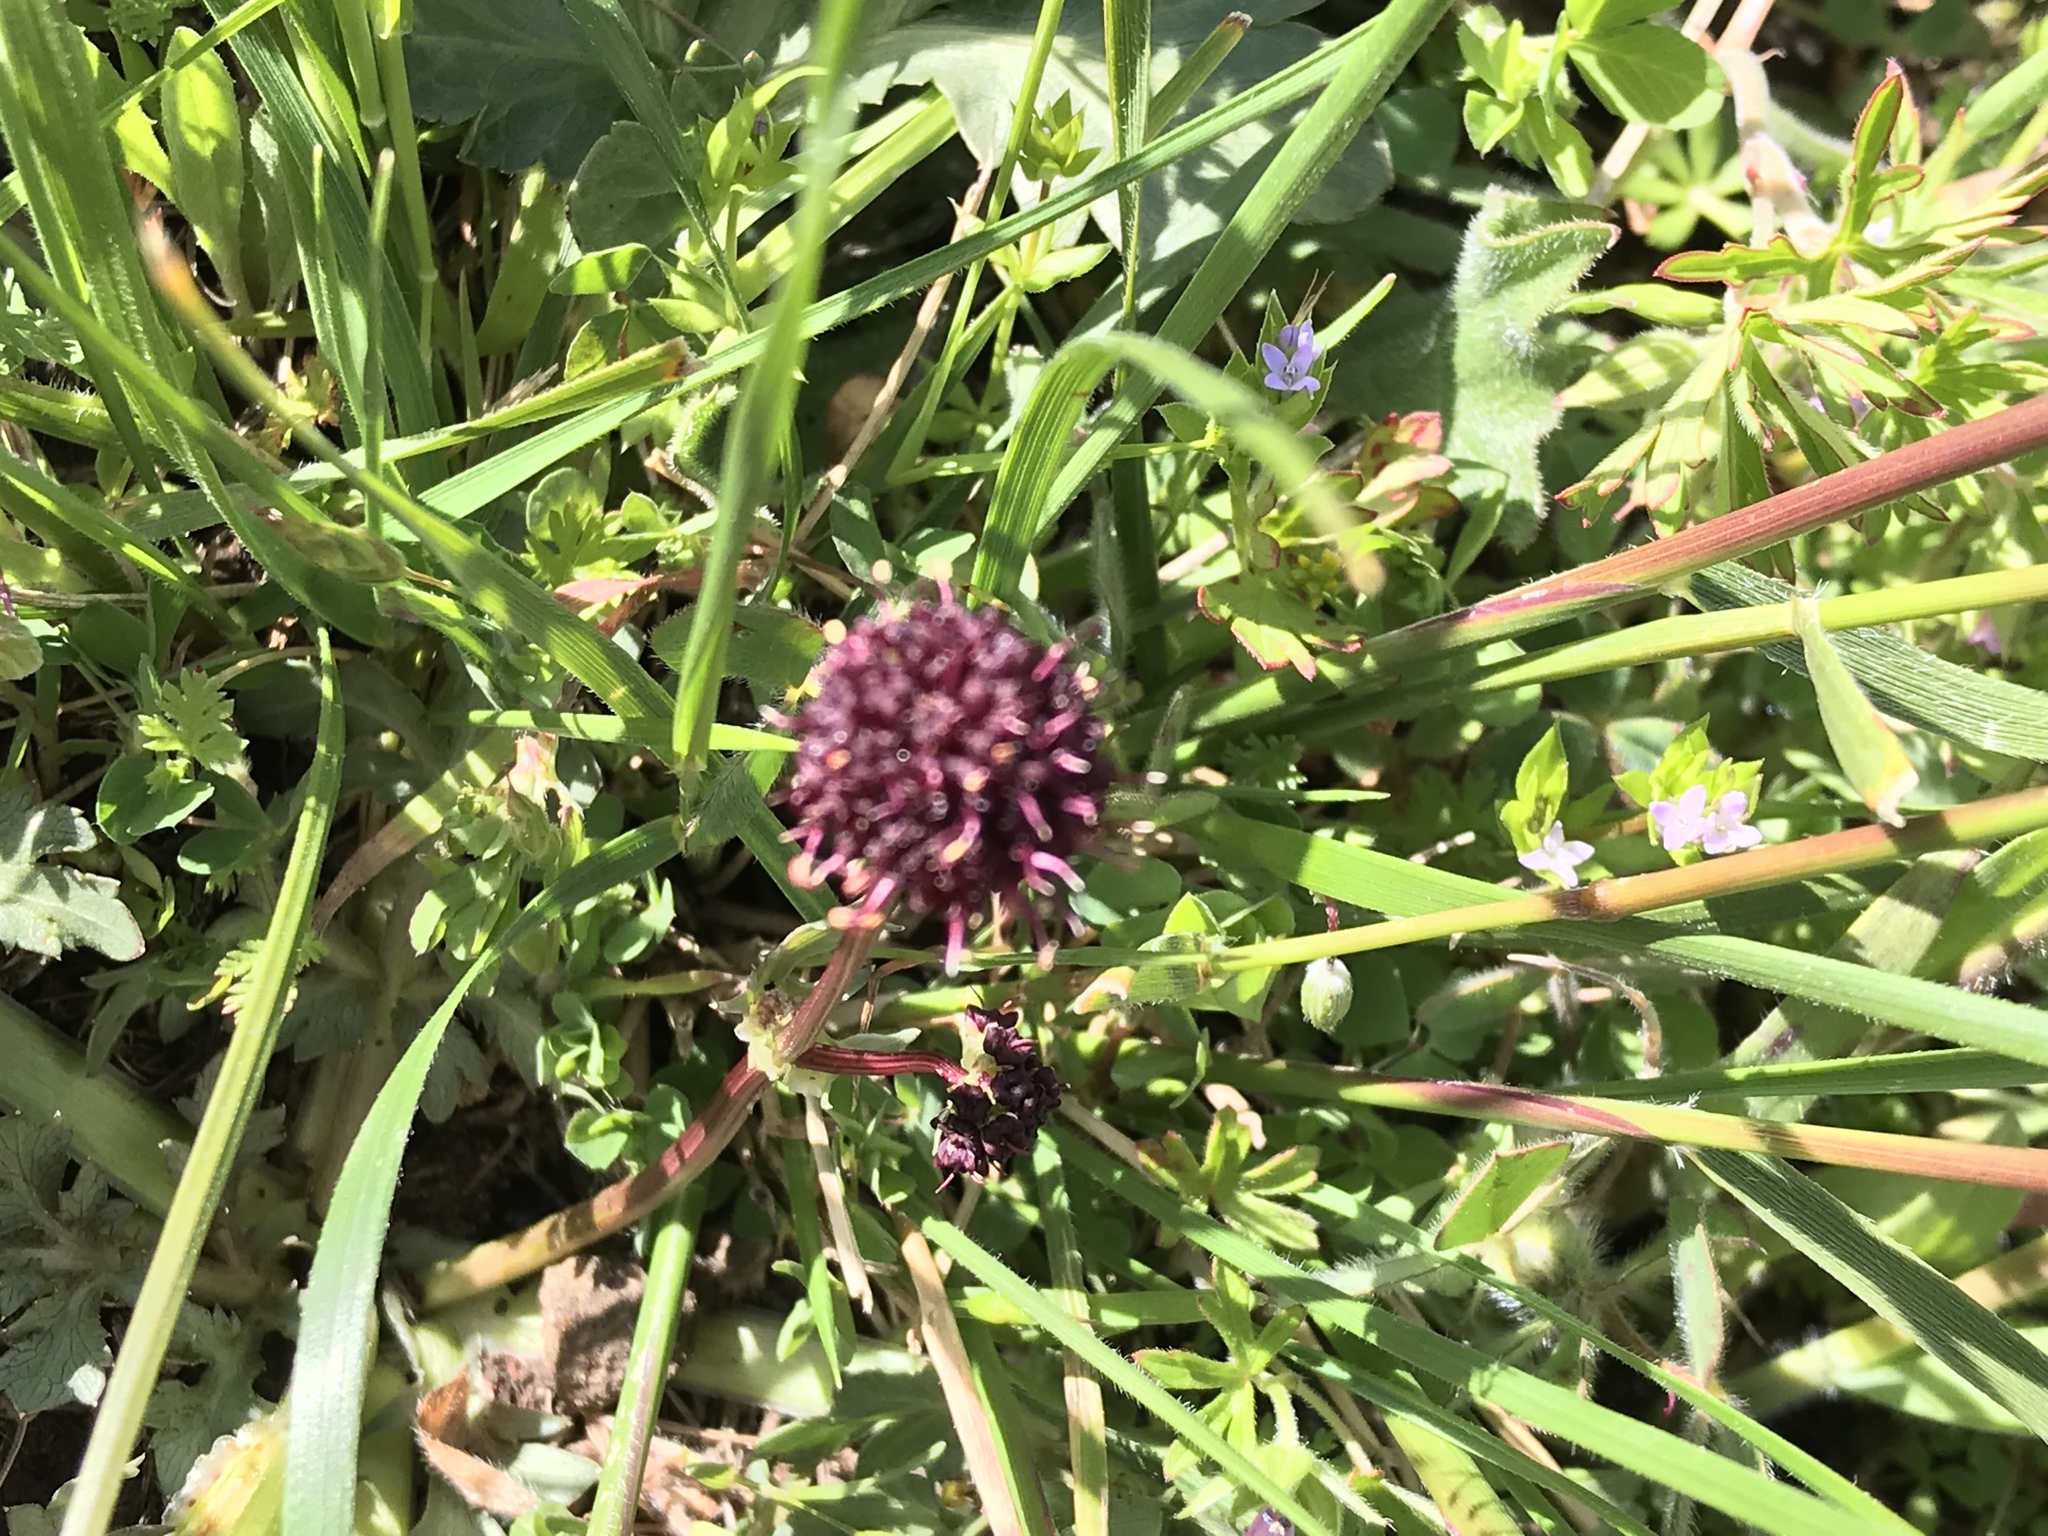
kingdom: Plantae
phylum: Tracheophyta
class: Magnoliopsida
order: Apiales
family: Apiaceae
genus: Sanicula
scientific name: Sanicula bipinnatifida
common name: Shoe-buttons
